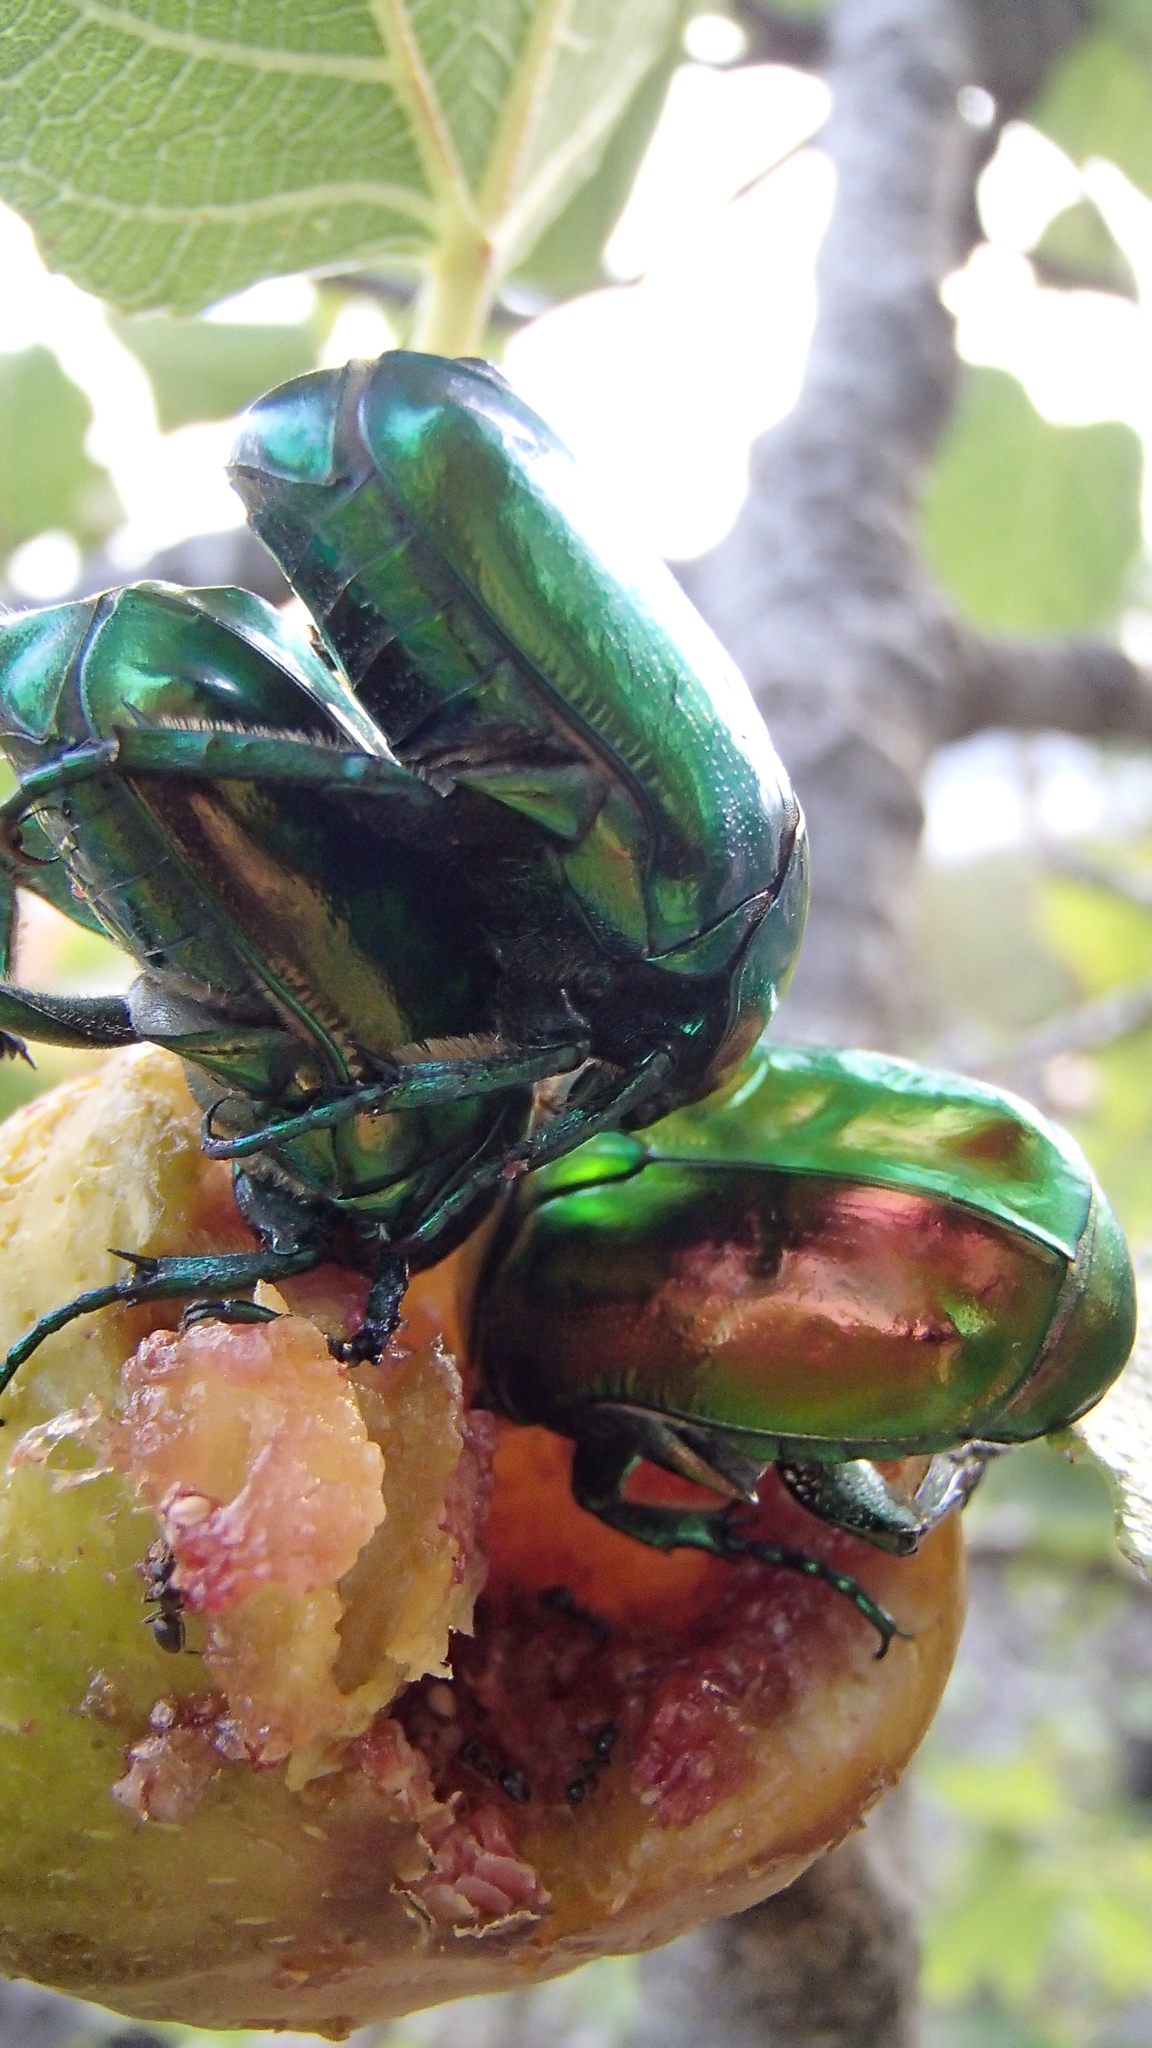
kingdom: Animalia
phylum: Arthropoda
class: Insecta
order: Coleoptera
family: Scarabaeidae
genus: Protaetia
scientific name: Protaetia speciosissima
